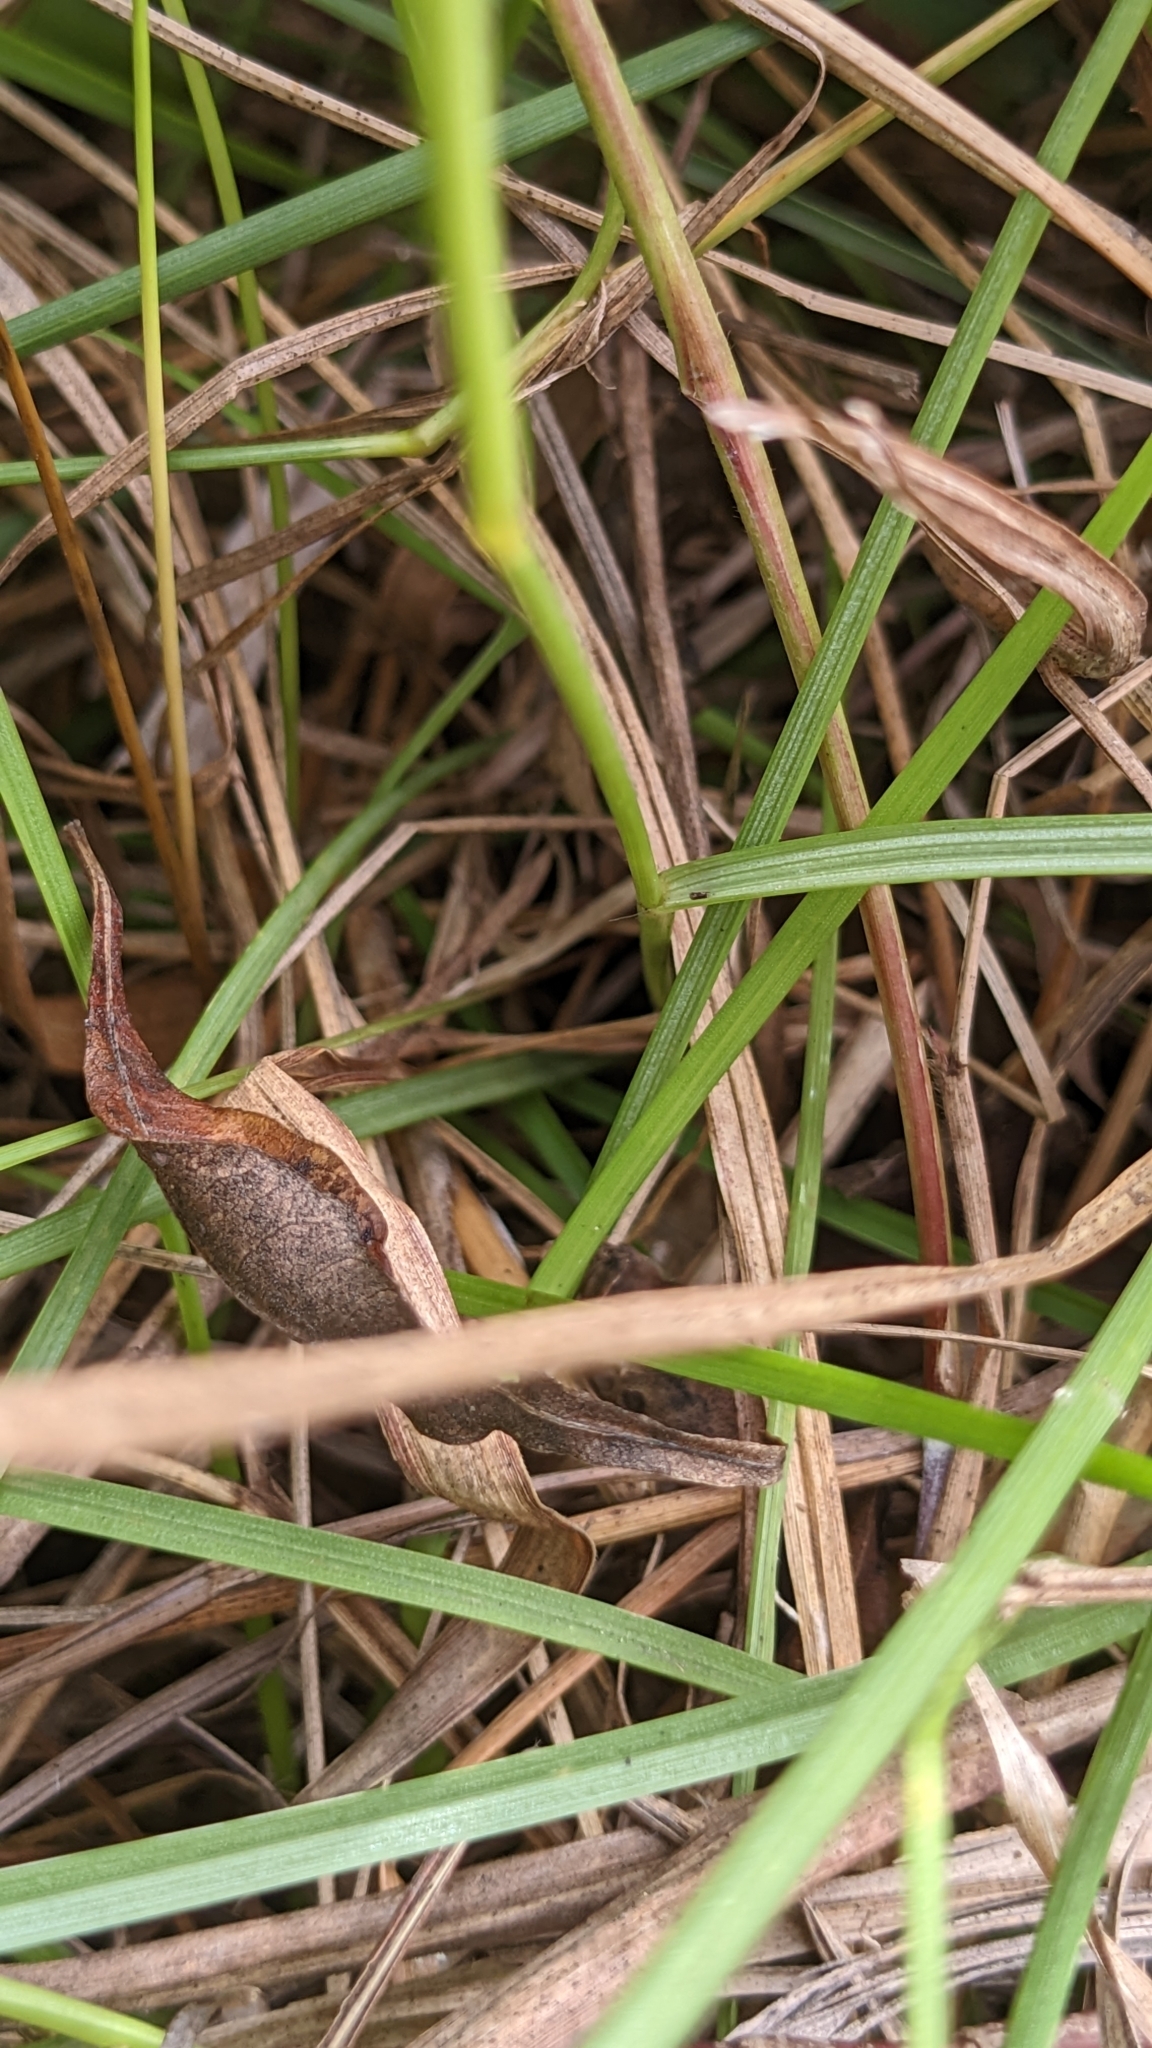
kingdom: Plantae
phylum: Tracheophyta
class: Liliopsida
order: Poales
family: Poaceae
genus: Mnesithea
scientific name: Mnesithea laevis
